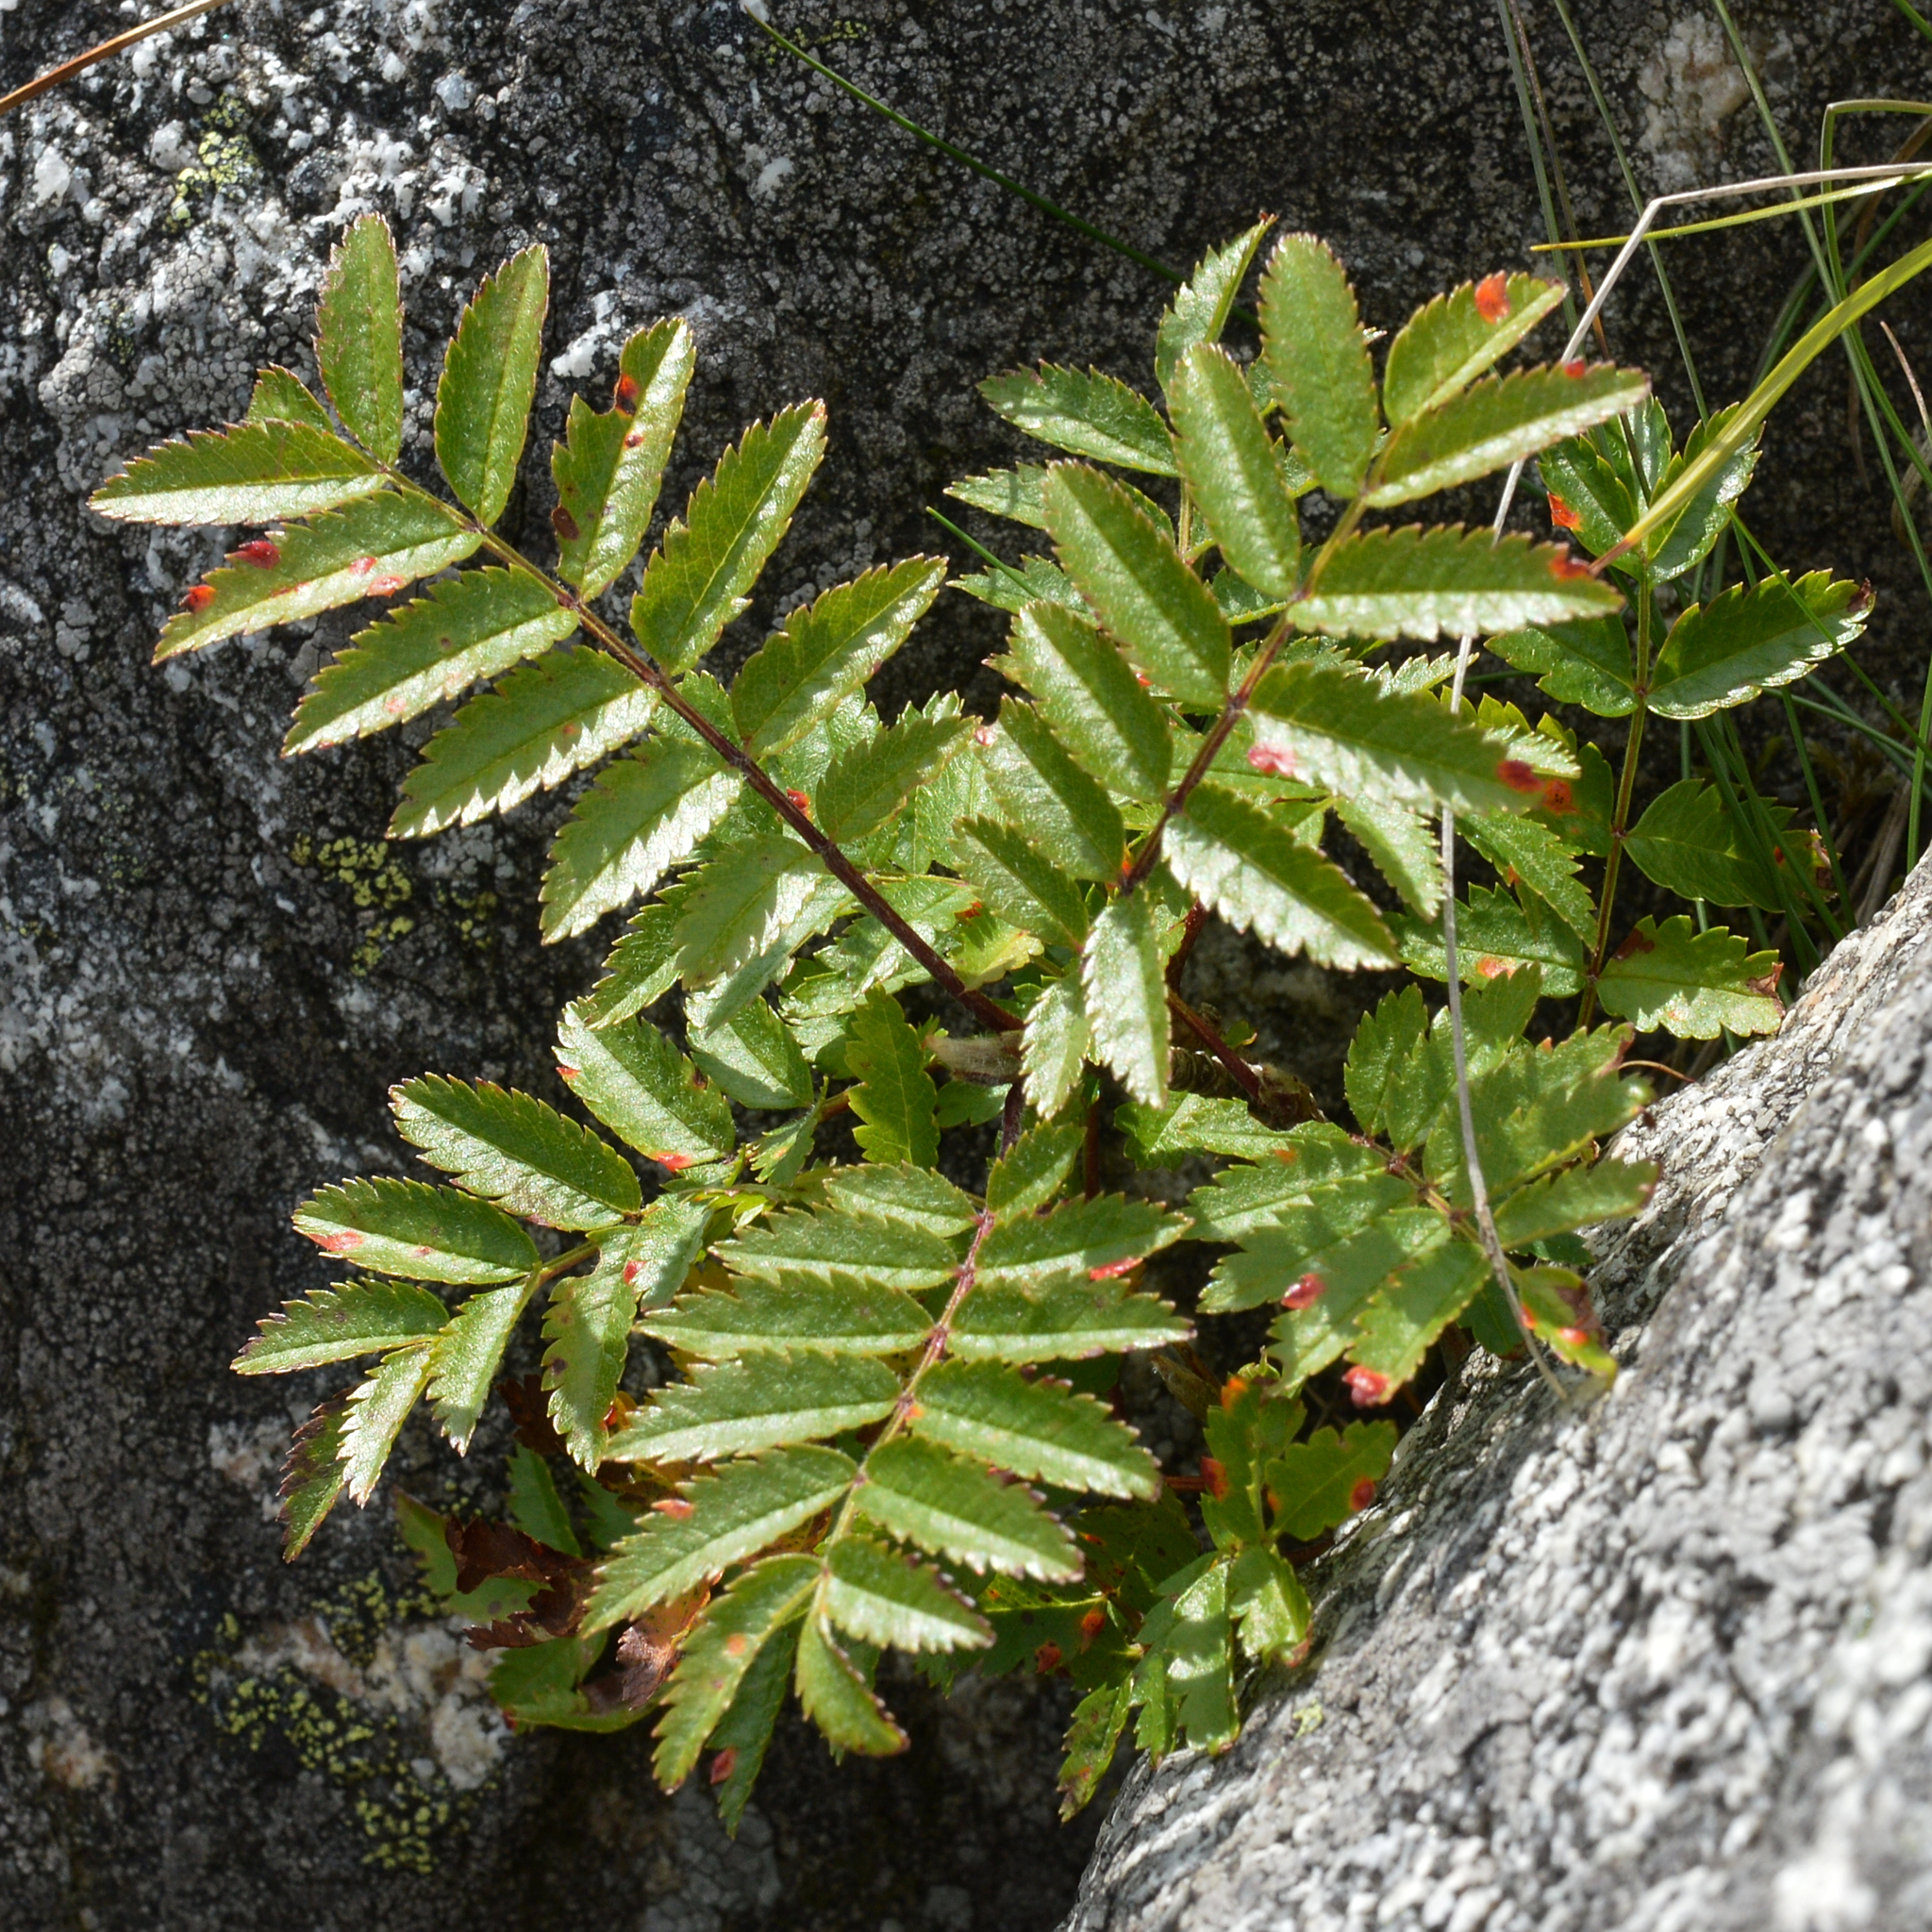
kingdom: Plantae
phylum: Tracheophyta
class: Magnoliopsida
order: Rosales
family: Rosaceae
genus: Sorbus
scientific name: Sorbus aucuparia
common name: Rowan
